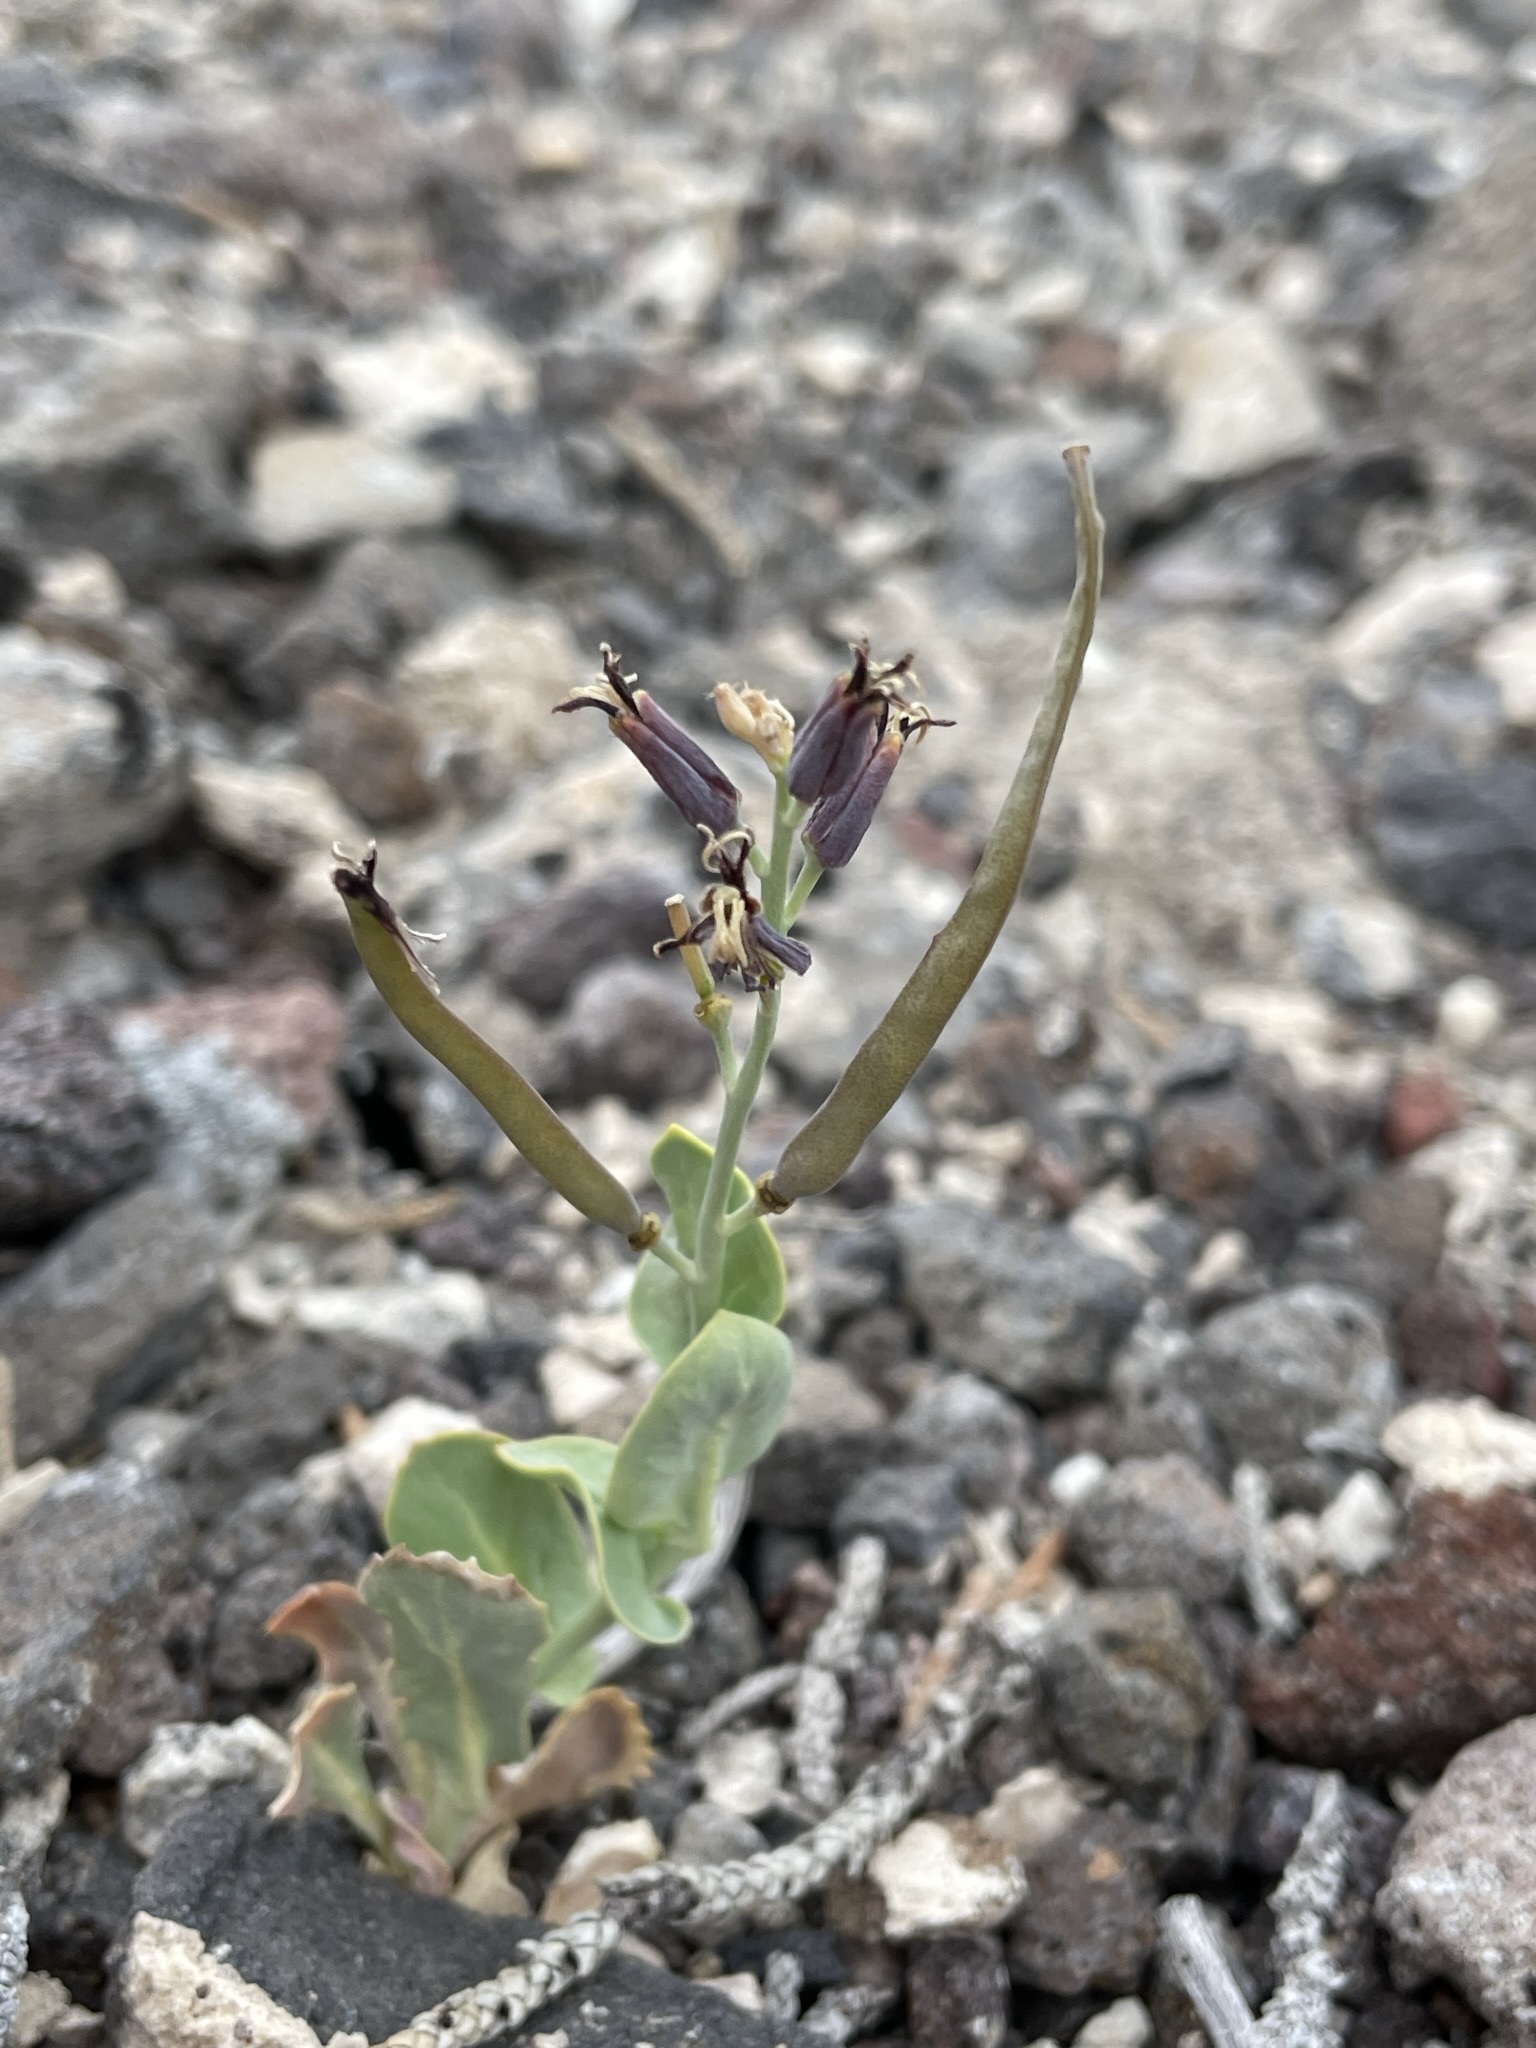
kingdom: Plantae
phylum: Tracheophyta
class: Magnoliopsida
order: Brassicales
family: Brassicaceae
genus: Streptanthus
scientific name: Streptanthus cordatus
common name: Heart-leaf jewel-flower
